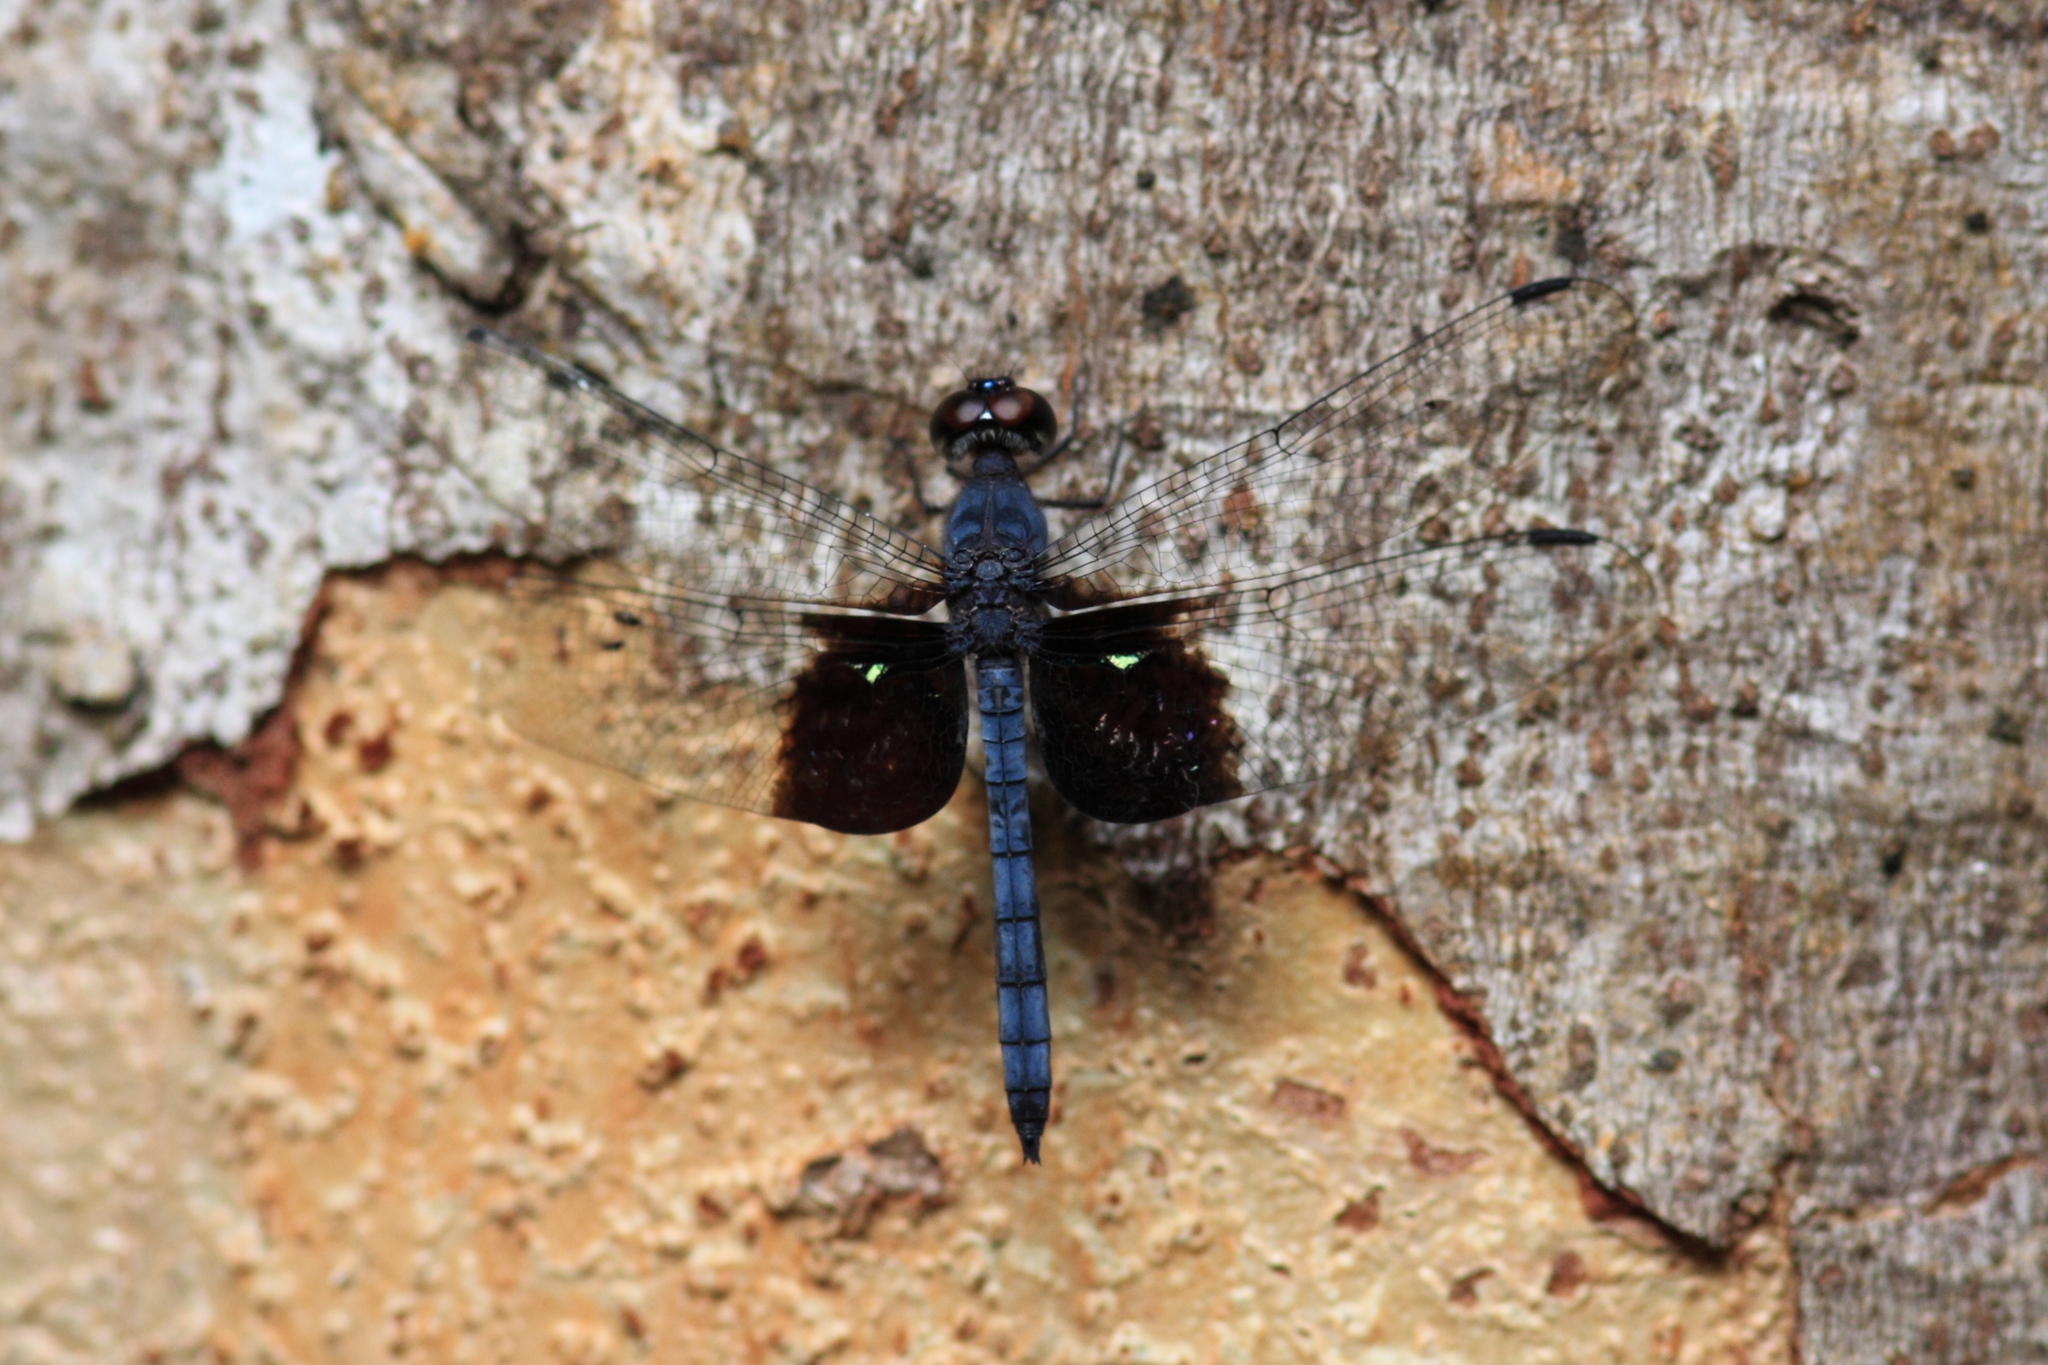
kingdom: Animalia
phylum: Arthropoda
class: Insecta
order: Odonata
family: Libellulidae
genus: Tyriobapta
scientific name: Tyriobapta torrida
